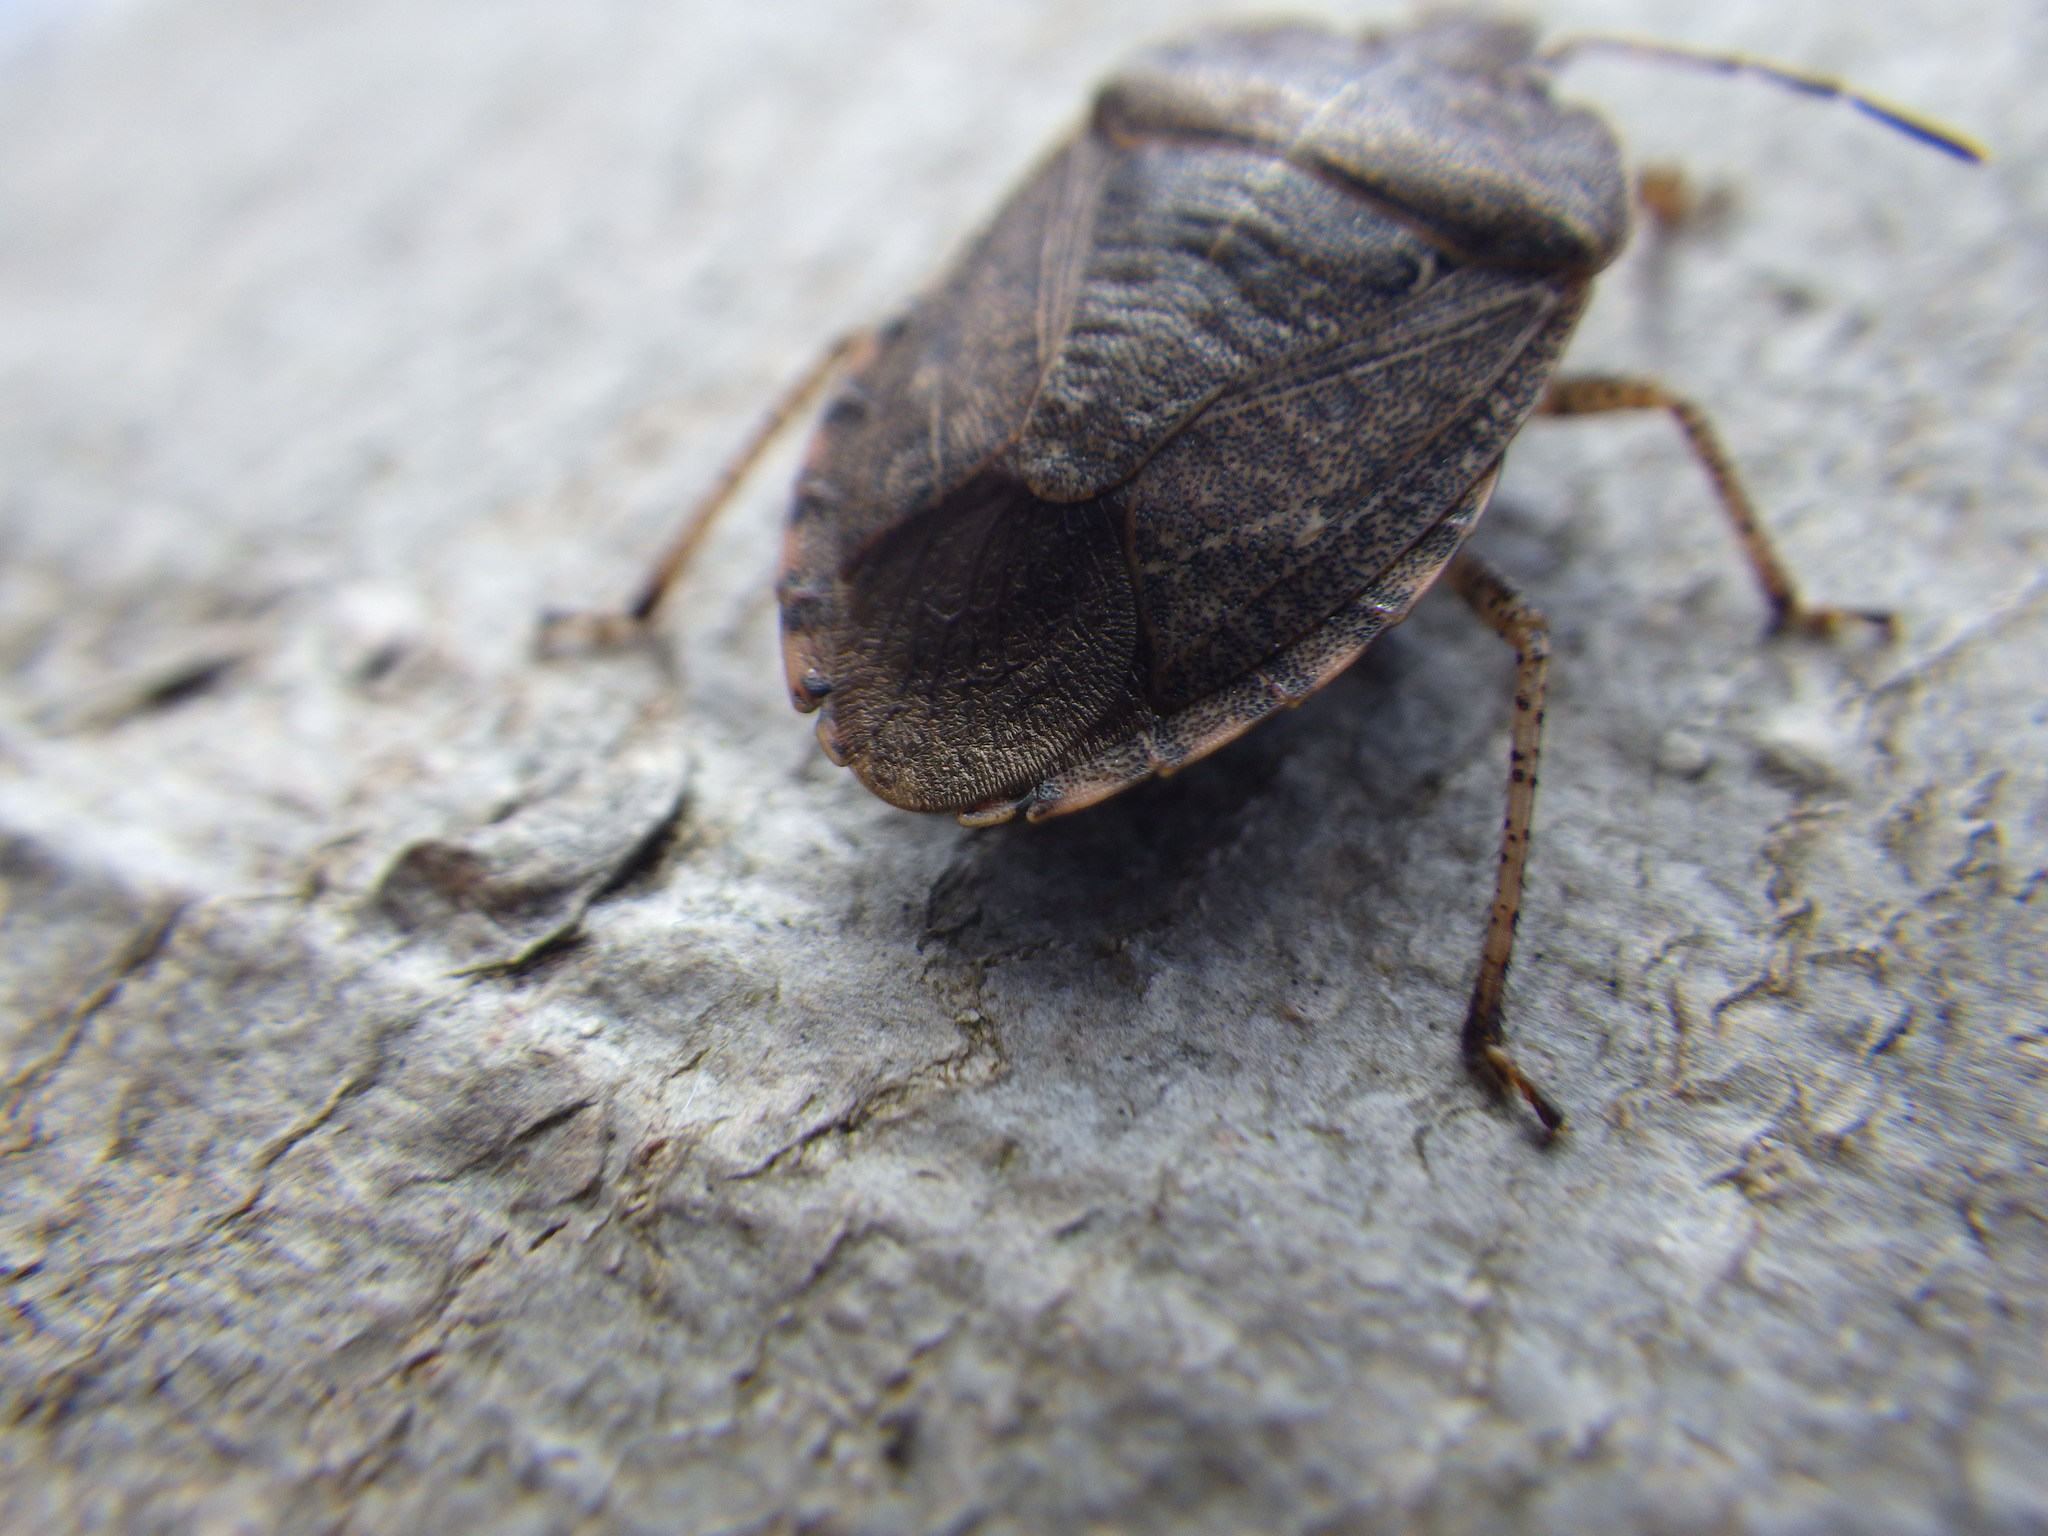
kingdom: Animalia
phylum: Arthropoda
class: Insecta
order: Hemiptera
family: Pentatomidae
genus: Menecles
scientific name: Menecles insertus
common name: Elf shoe stink bug
